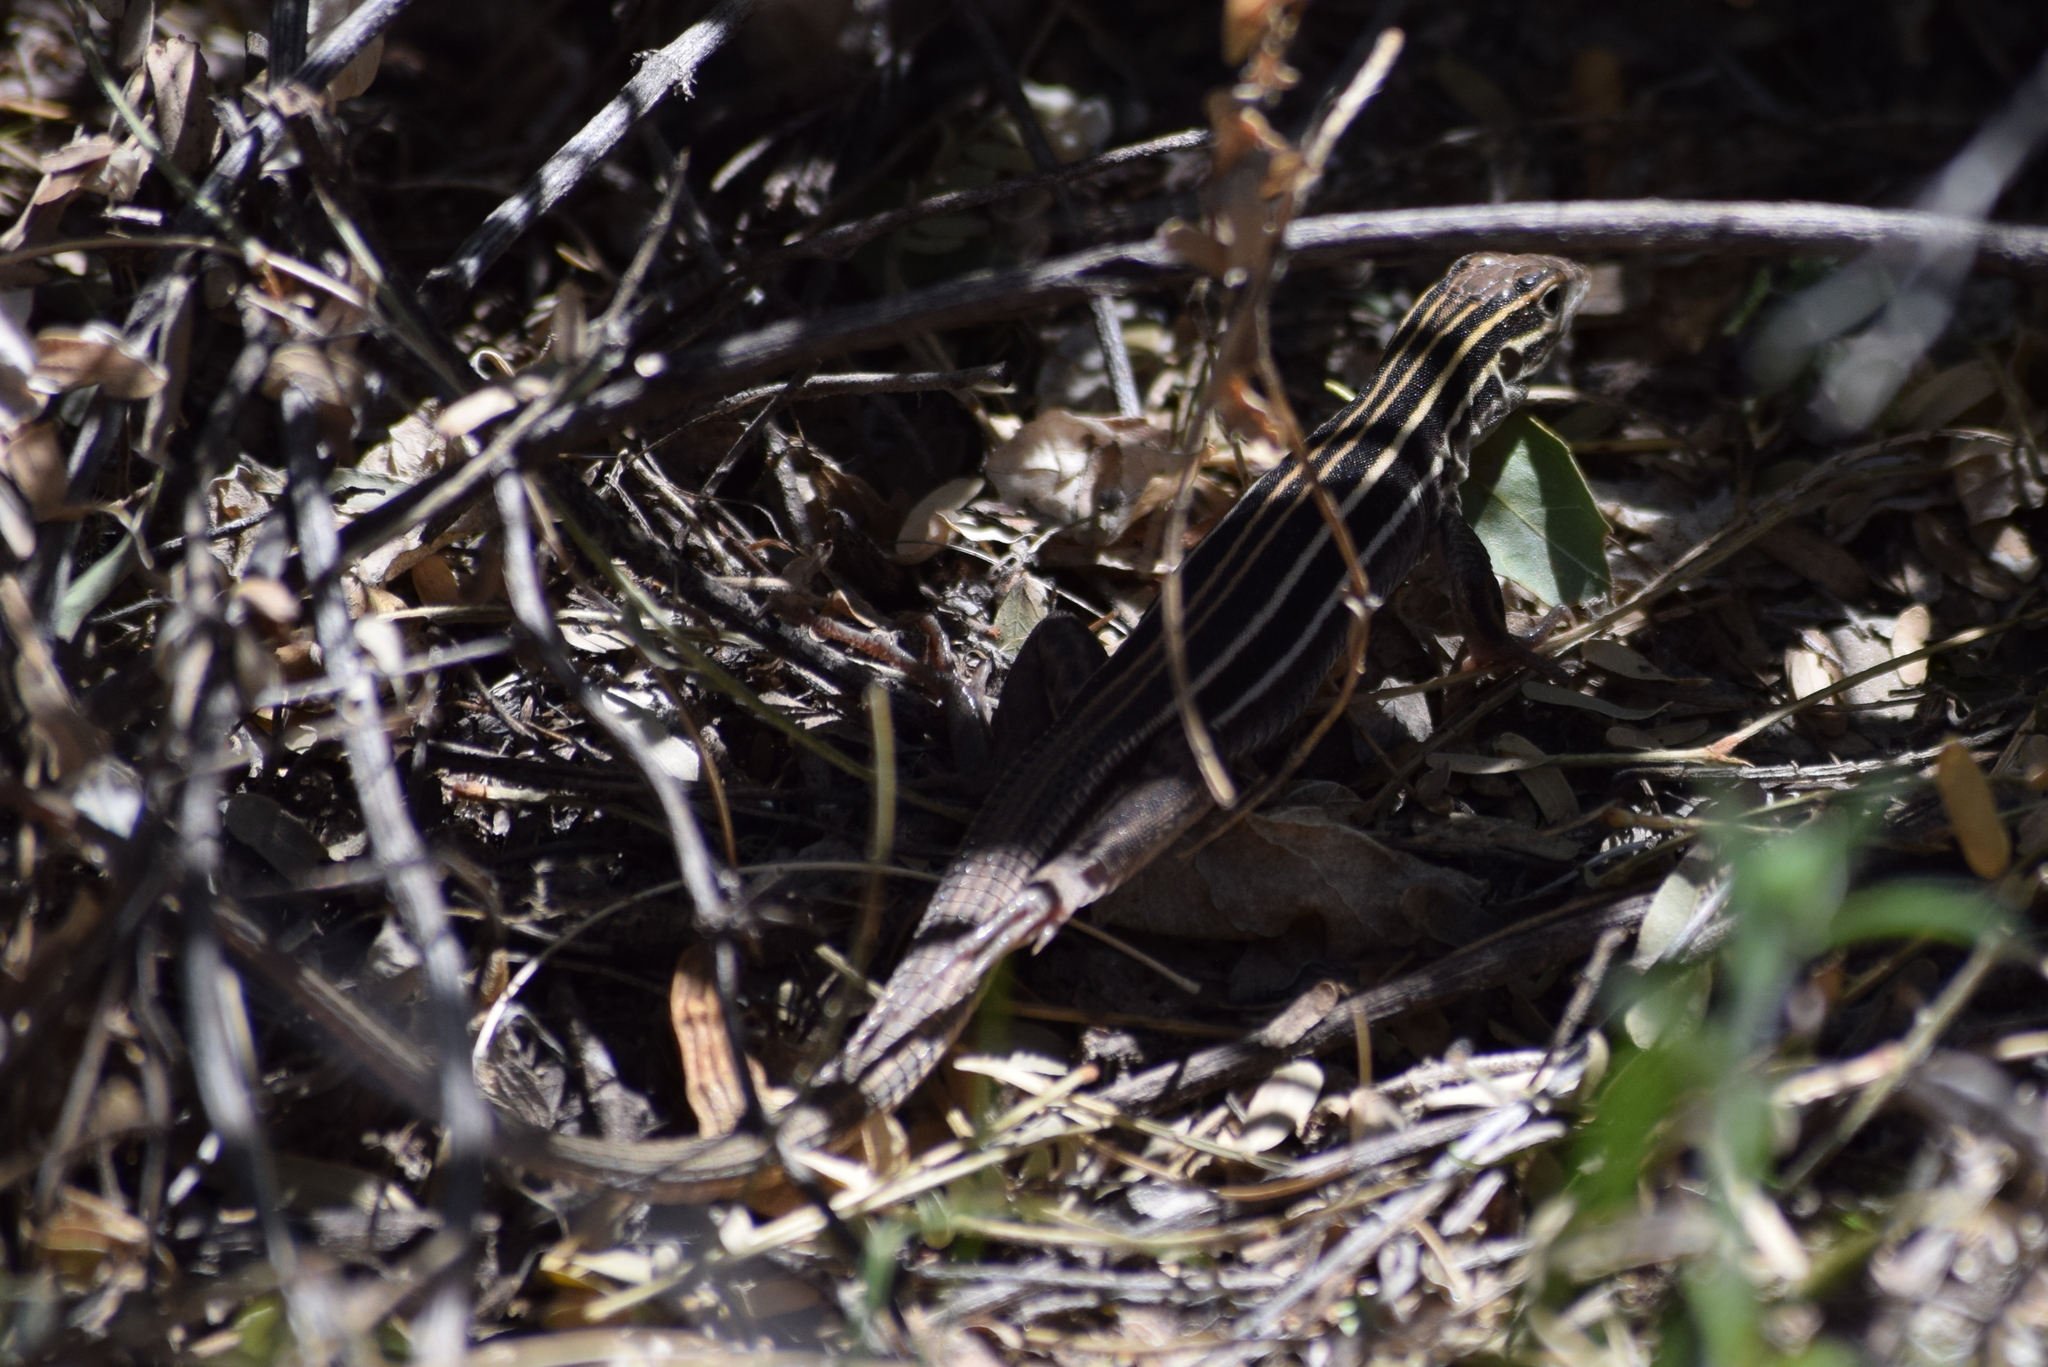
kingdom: Animalia
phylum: Chordata
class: Squamata
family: Teiidae
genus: Aspidoscelis
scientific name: Aspidoscelis uniparens
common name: Desert grassland whiptail
